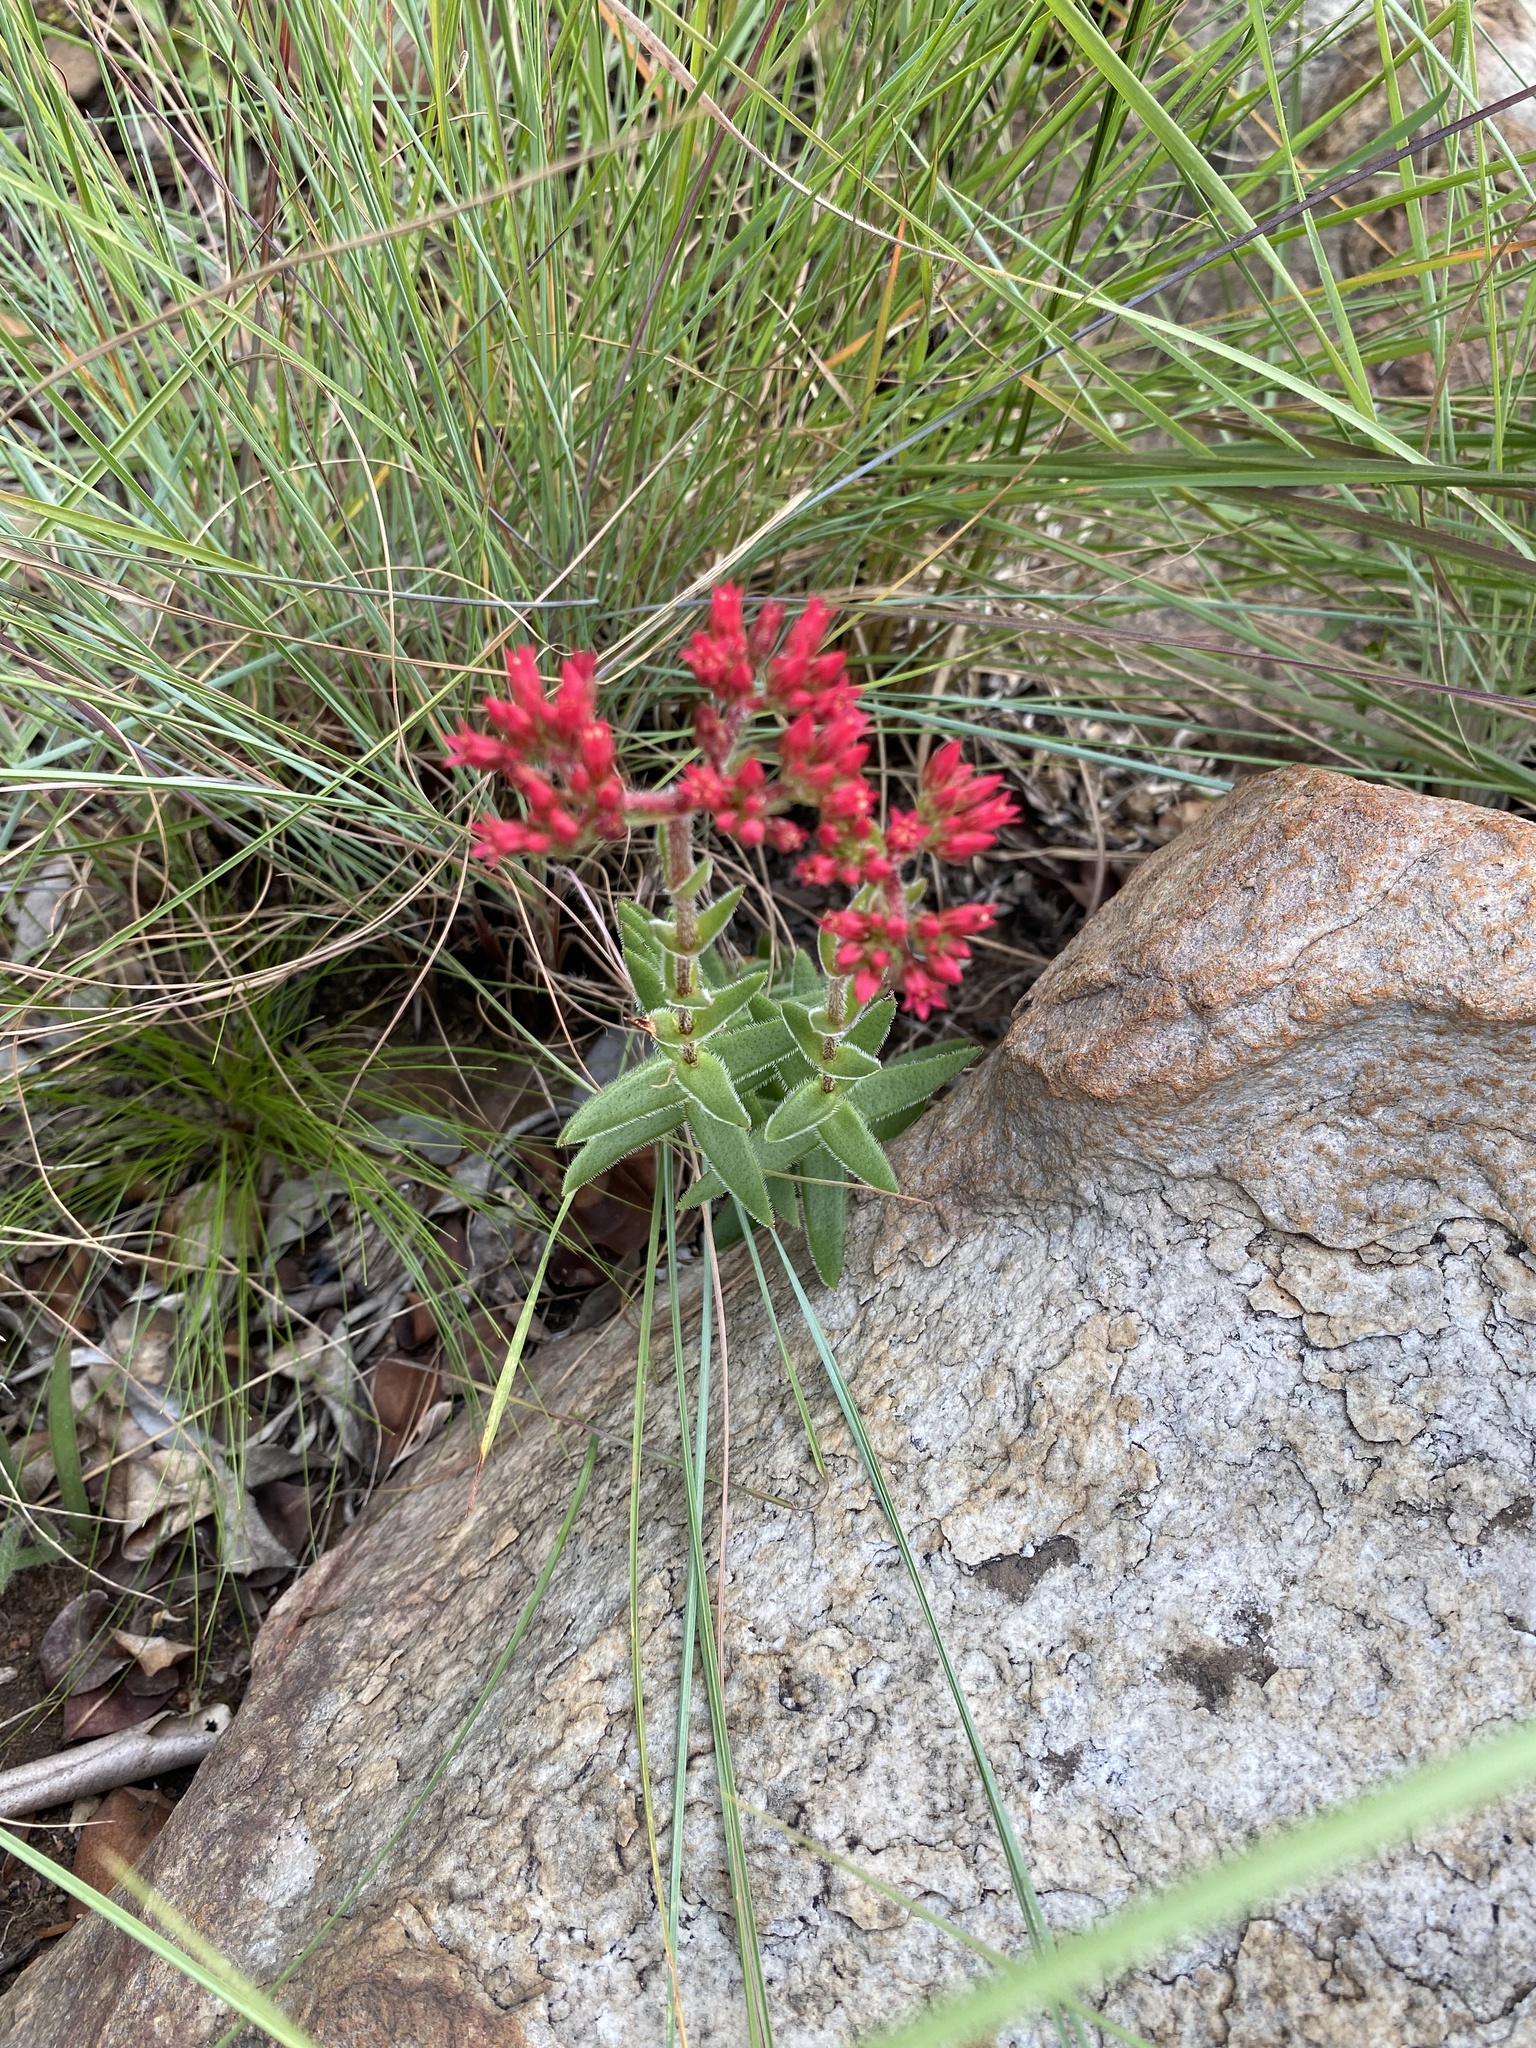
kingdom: Plantae
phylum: Tracheophyta
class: Magnoliopsida
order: Saxifragales
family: Crassulaceae
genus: Crassula
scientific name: Crassula alba
